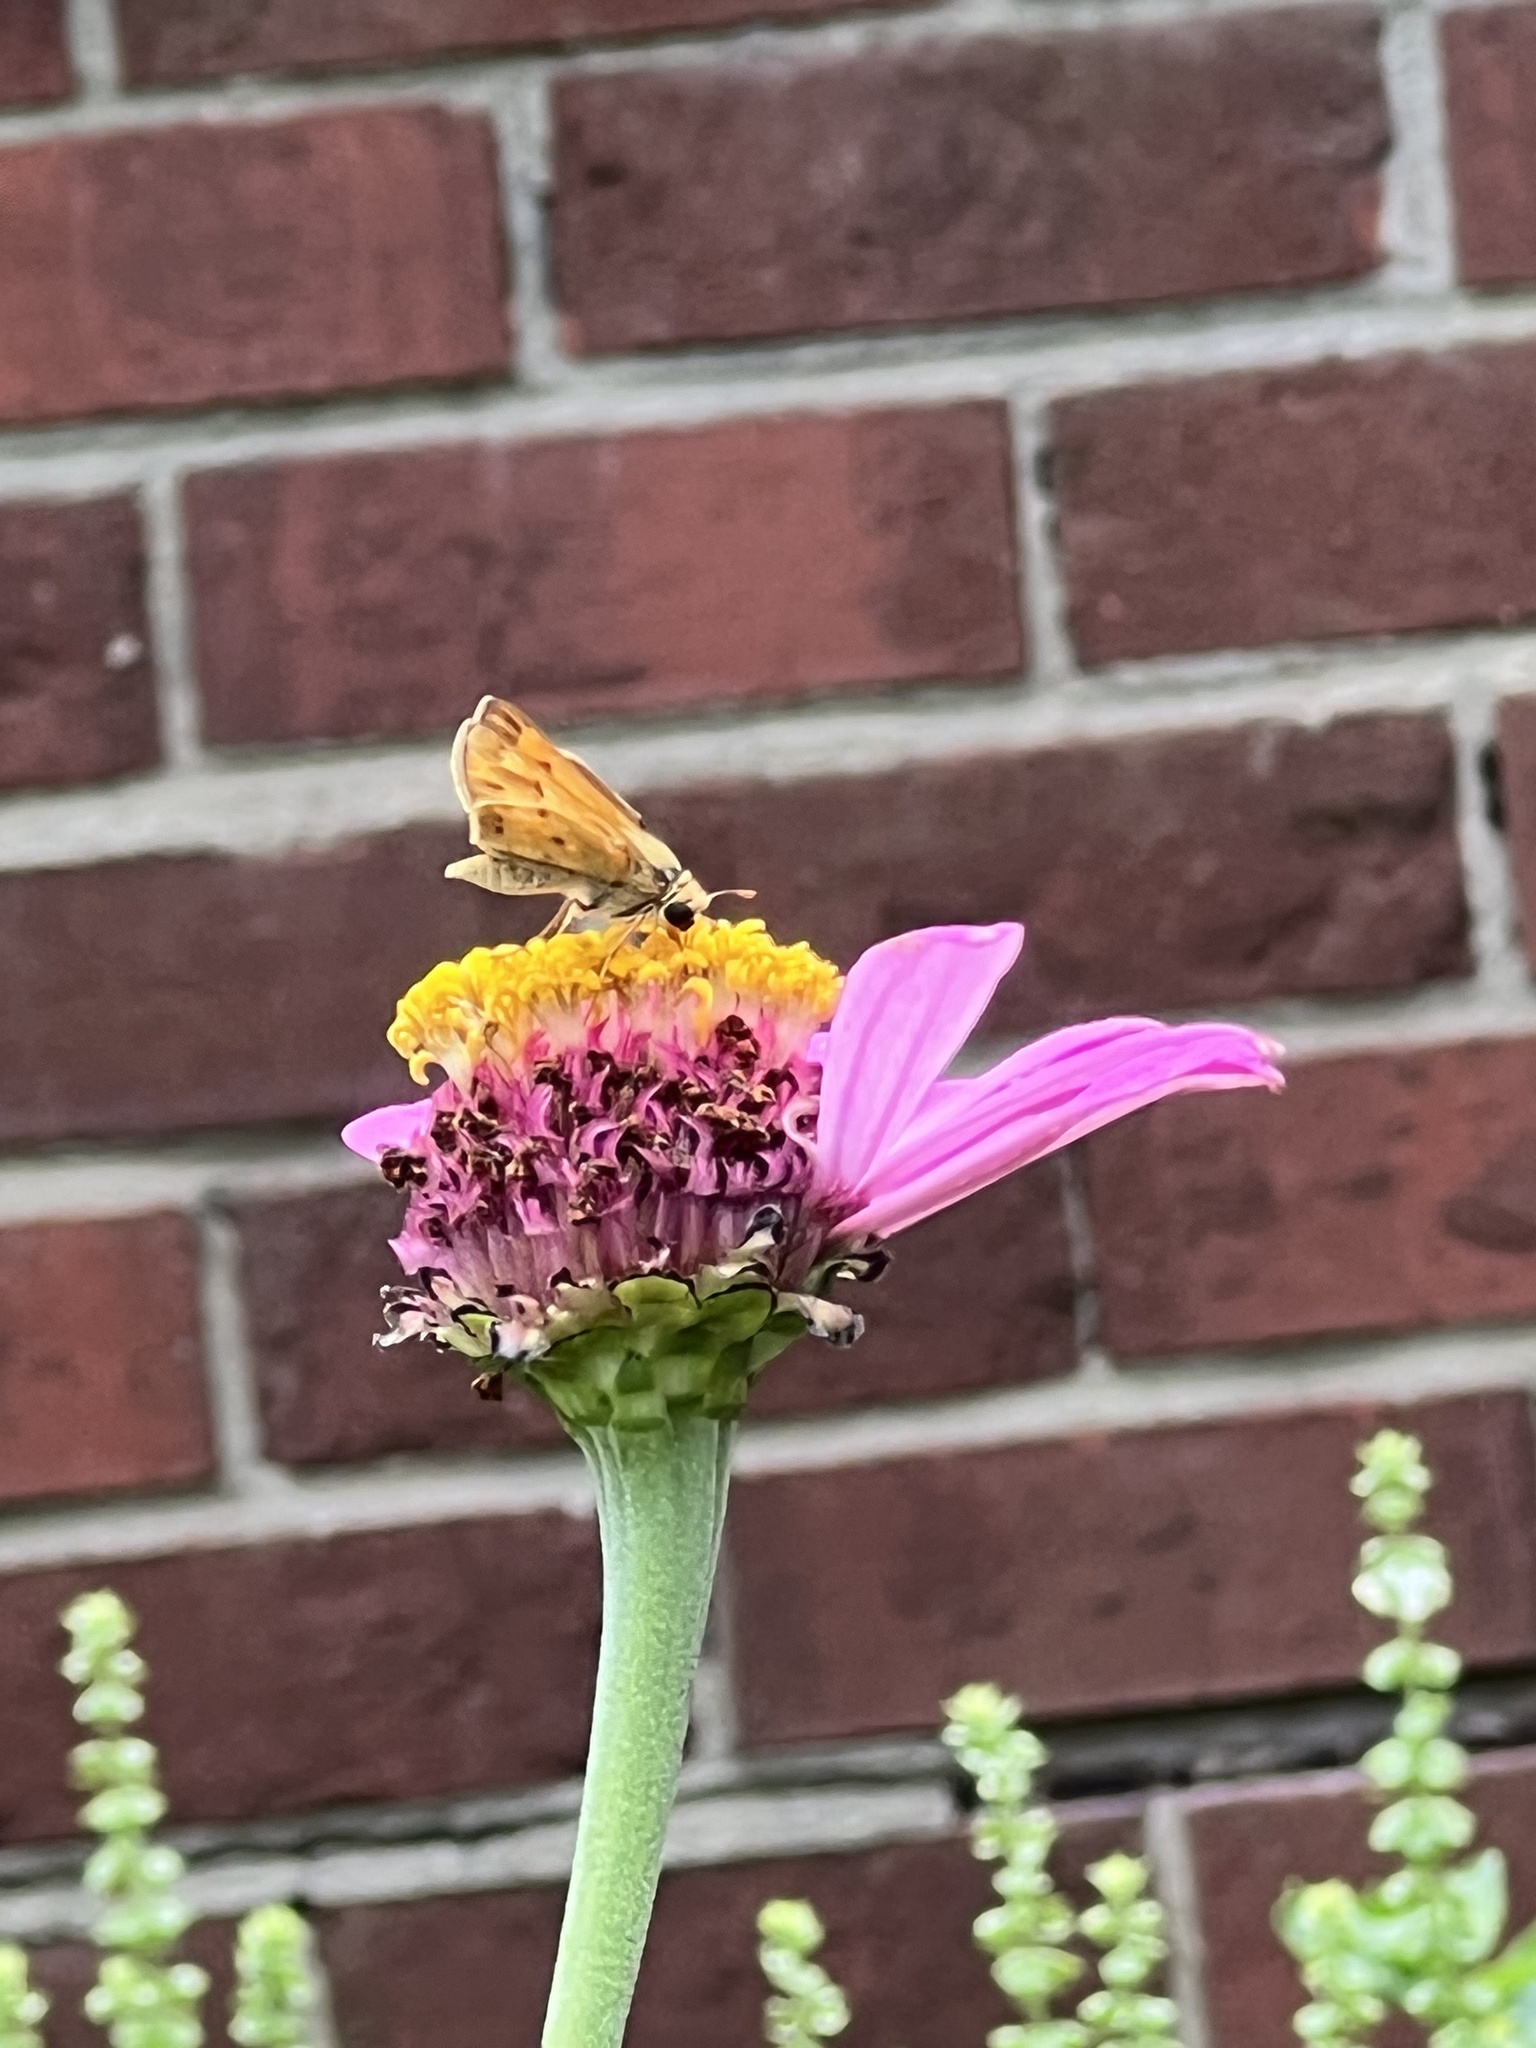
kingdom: Animalia
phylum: Arthropoda
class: Insecta
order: Lepidoptera
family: Hesperiidae
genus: Hylephila
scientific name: Hylephila phyleus
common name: Fiery skipper
